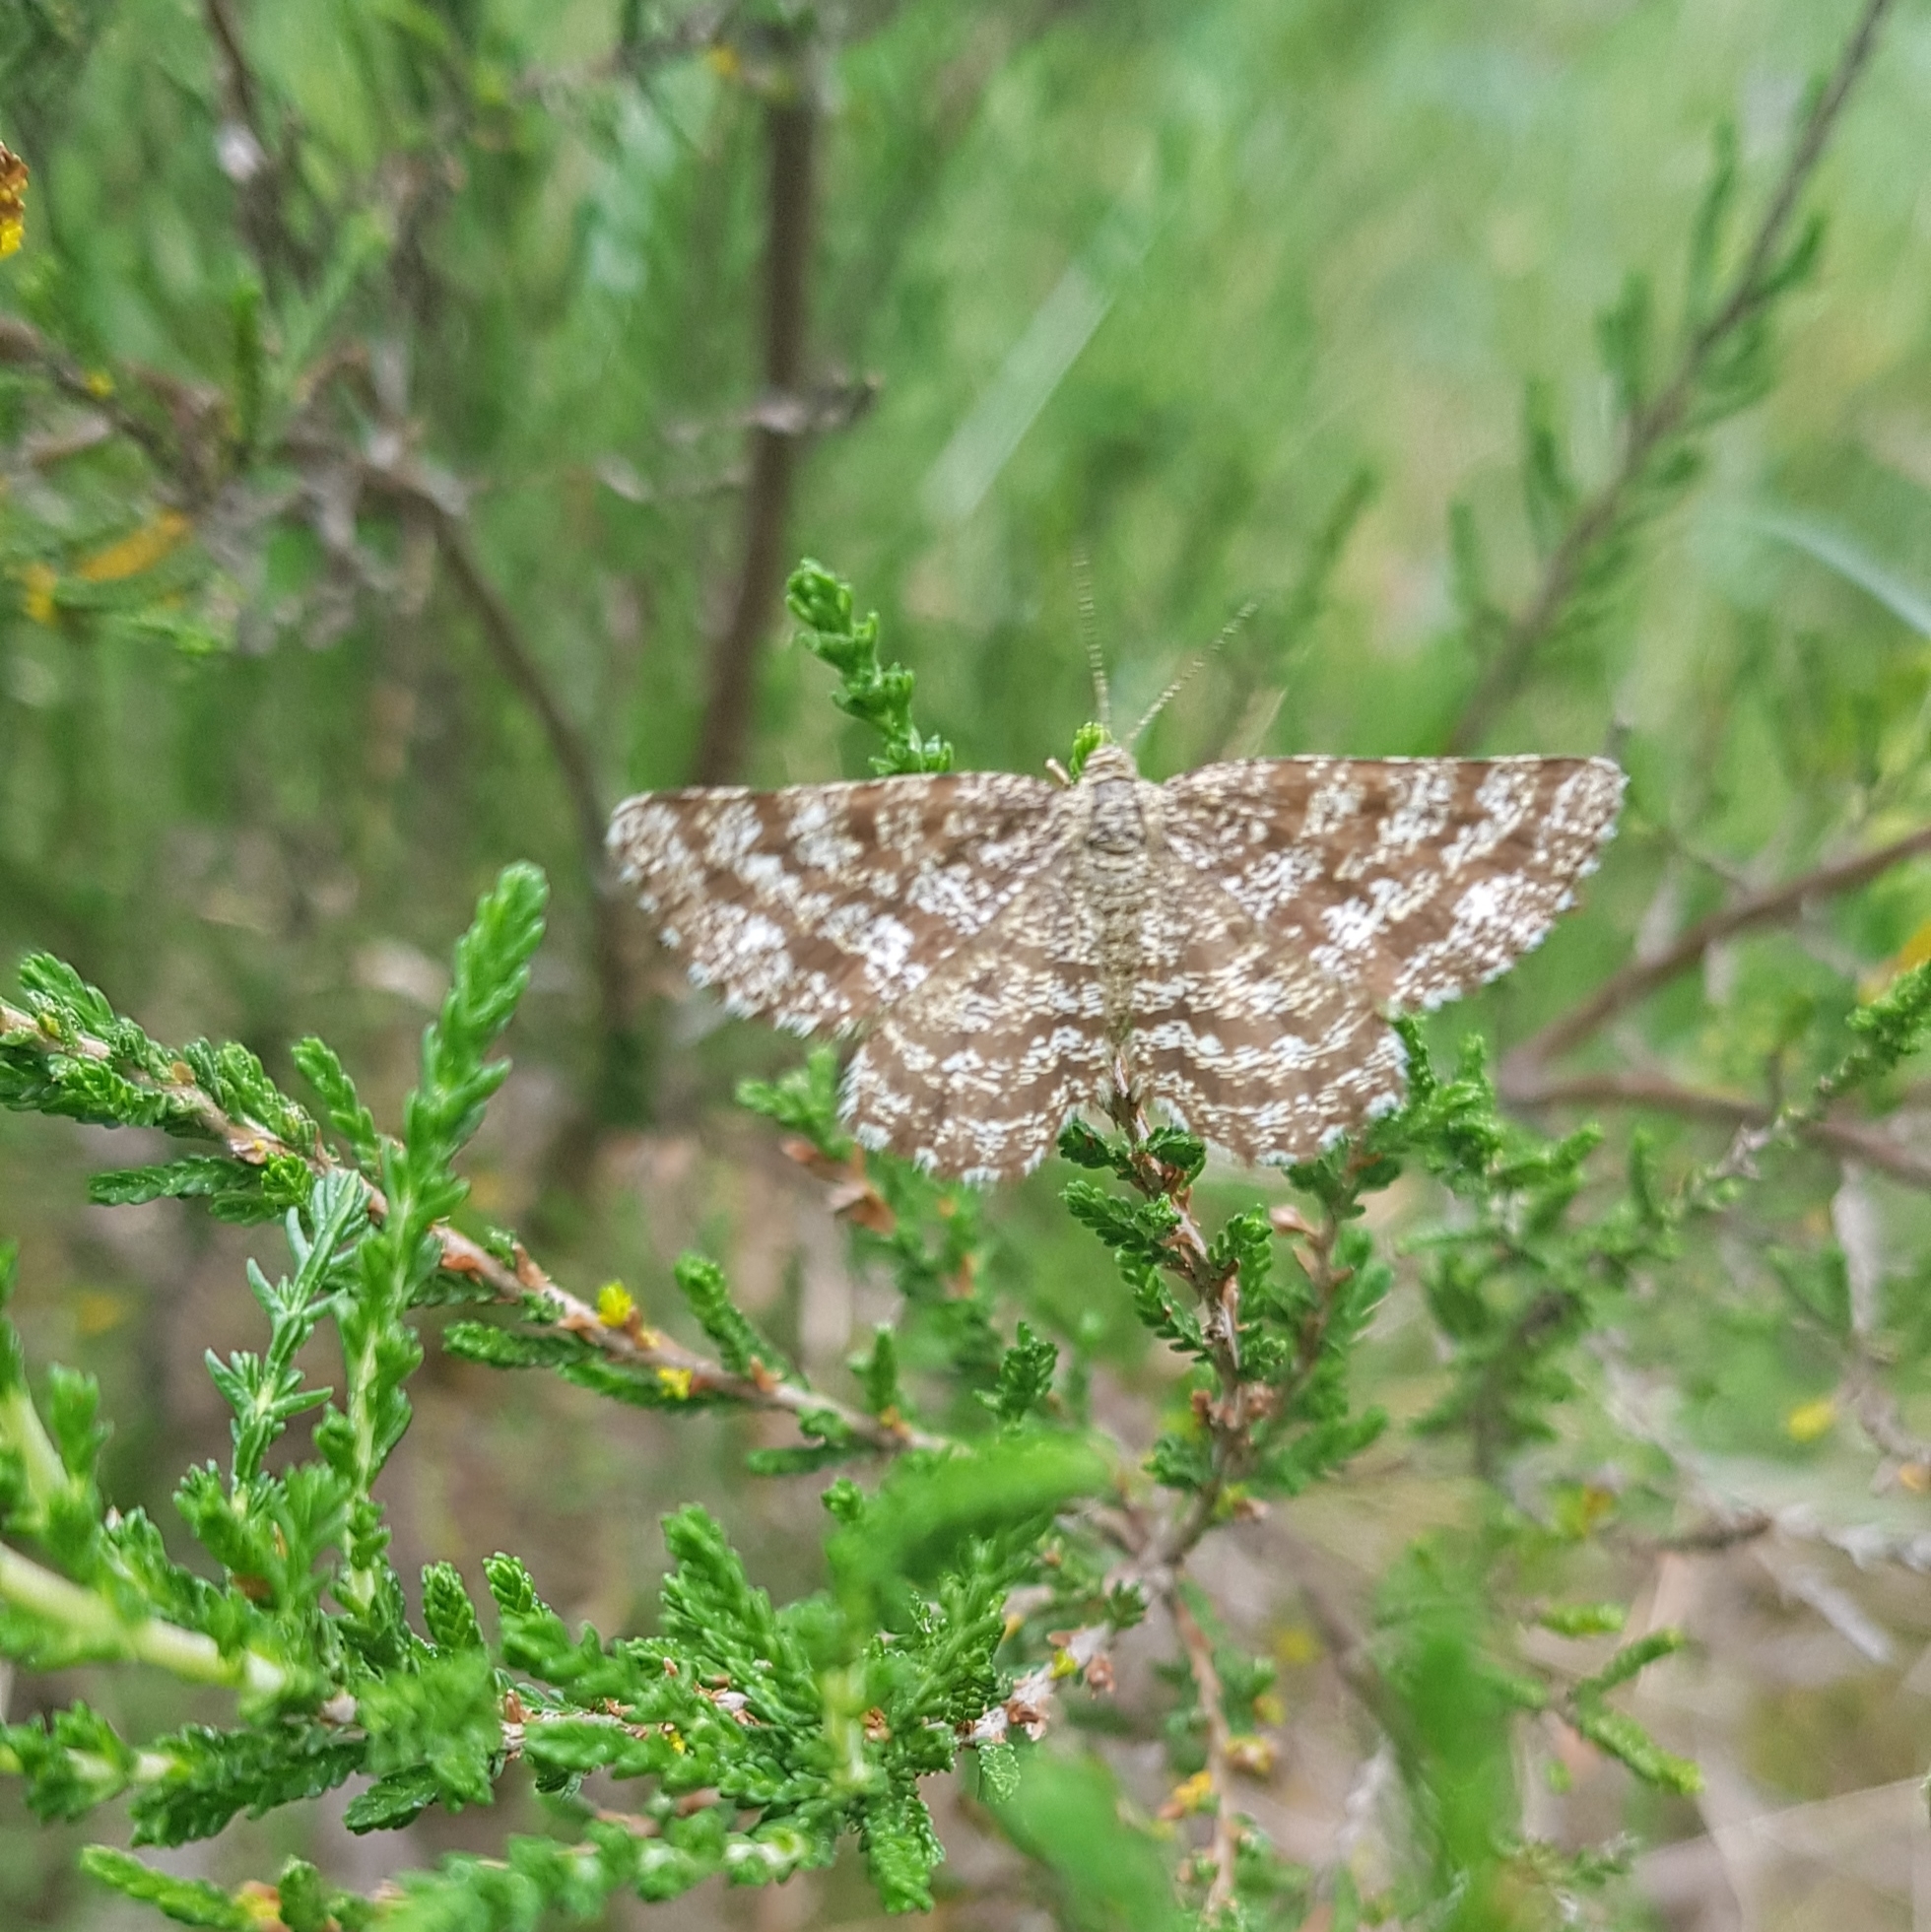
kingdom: Animalia
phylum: Arthropoda
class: Insecta
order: Lepidoptera
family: Geometridae
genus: Ematurga
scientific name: Ematurga atomaria
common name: Common heath
